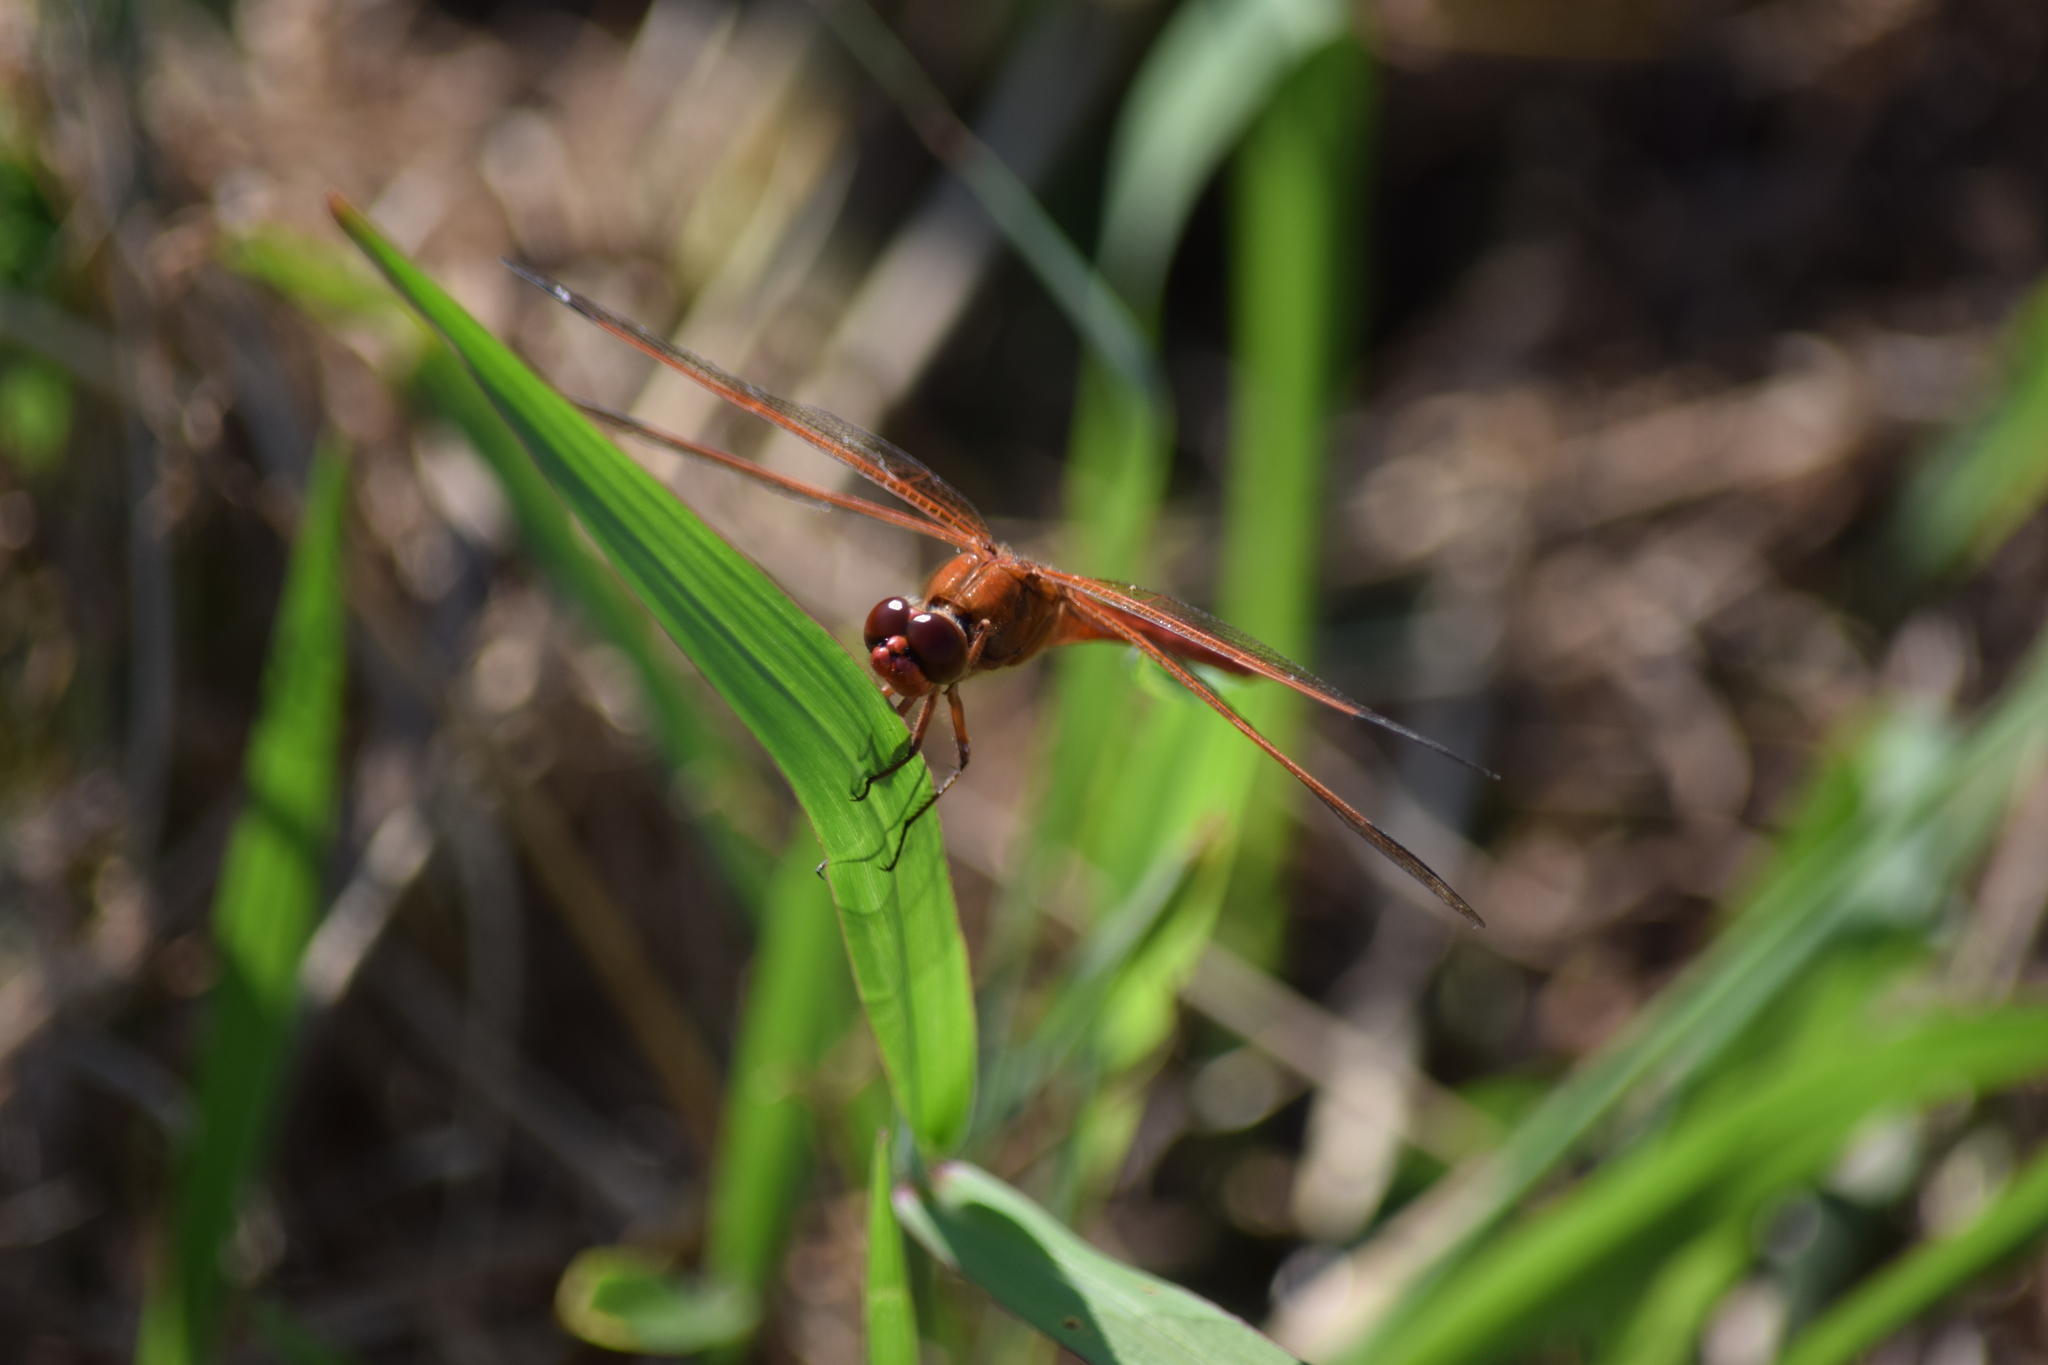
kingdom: Animalia
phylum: Arthropoda
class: Insecta
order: Odonata
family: Libellulidae
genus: Libellula
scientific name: Libellula needhami
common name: Needham's skimmer
